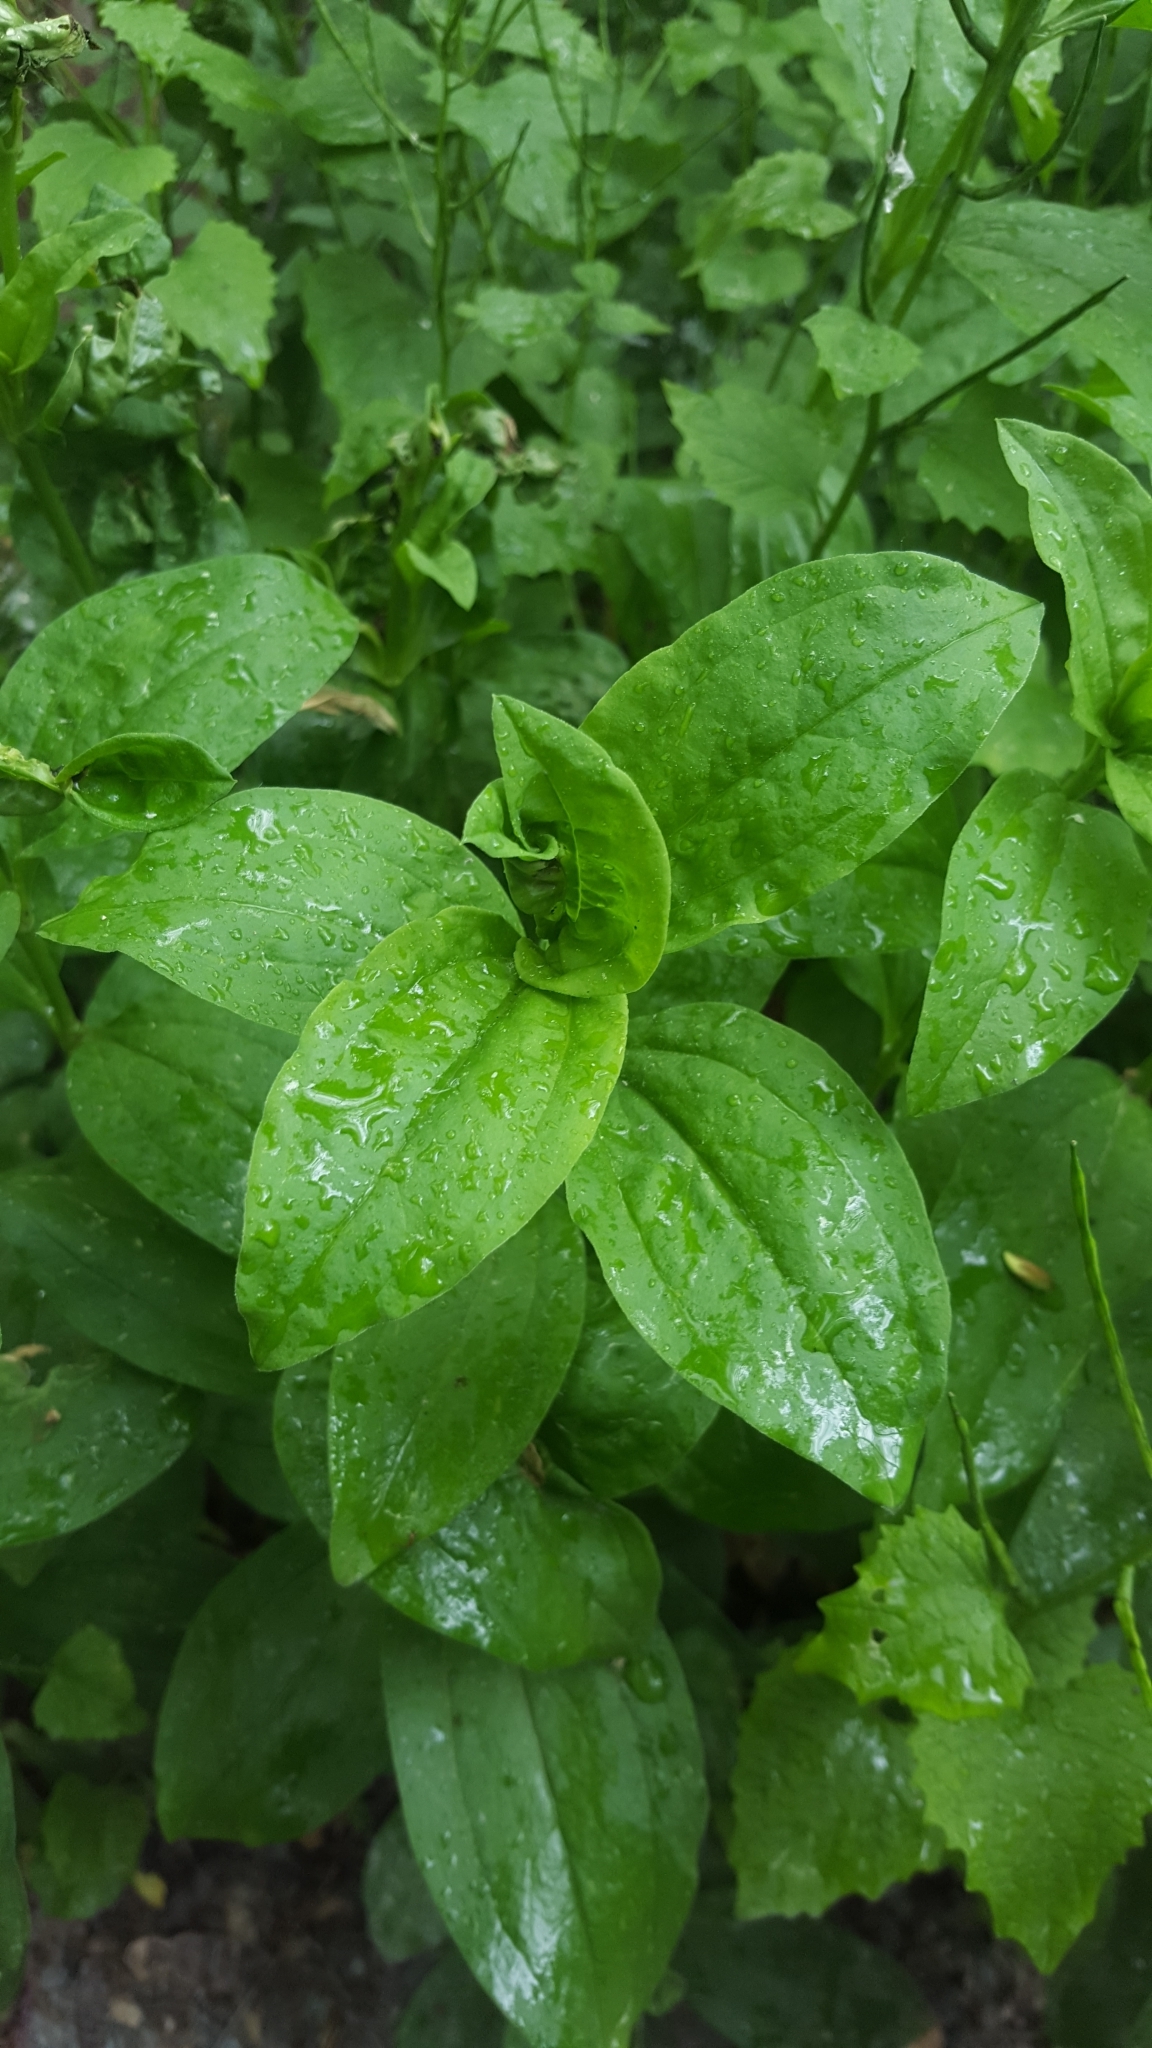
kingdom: Plantae
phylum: Tracheophyta
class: Magnoliopsida
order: Caryophyllales
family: Caryophyllaceae
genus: Saponaria
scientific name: Saponaria officinalis
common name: Soapwort
